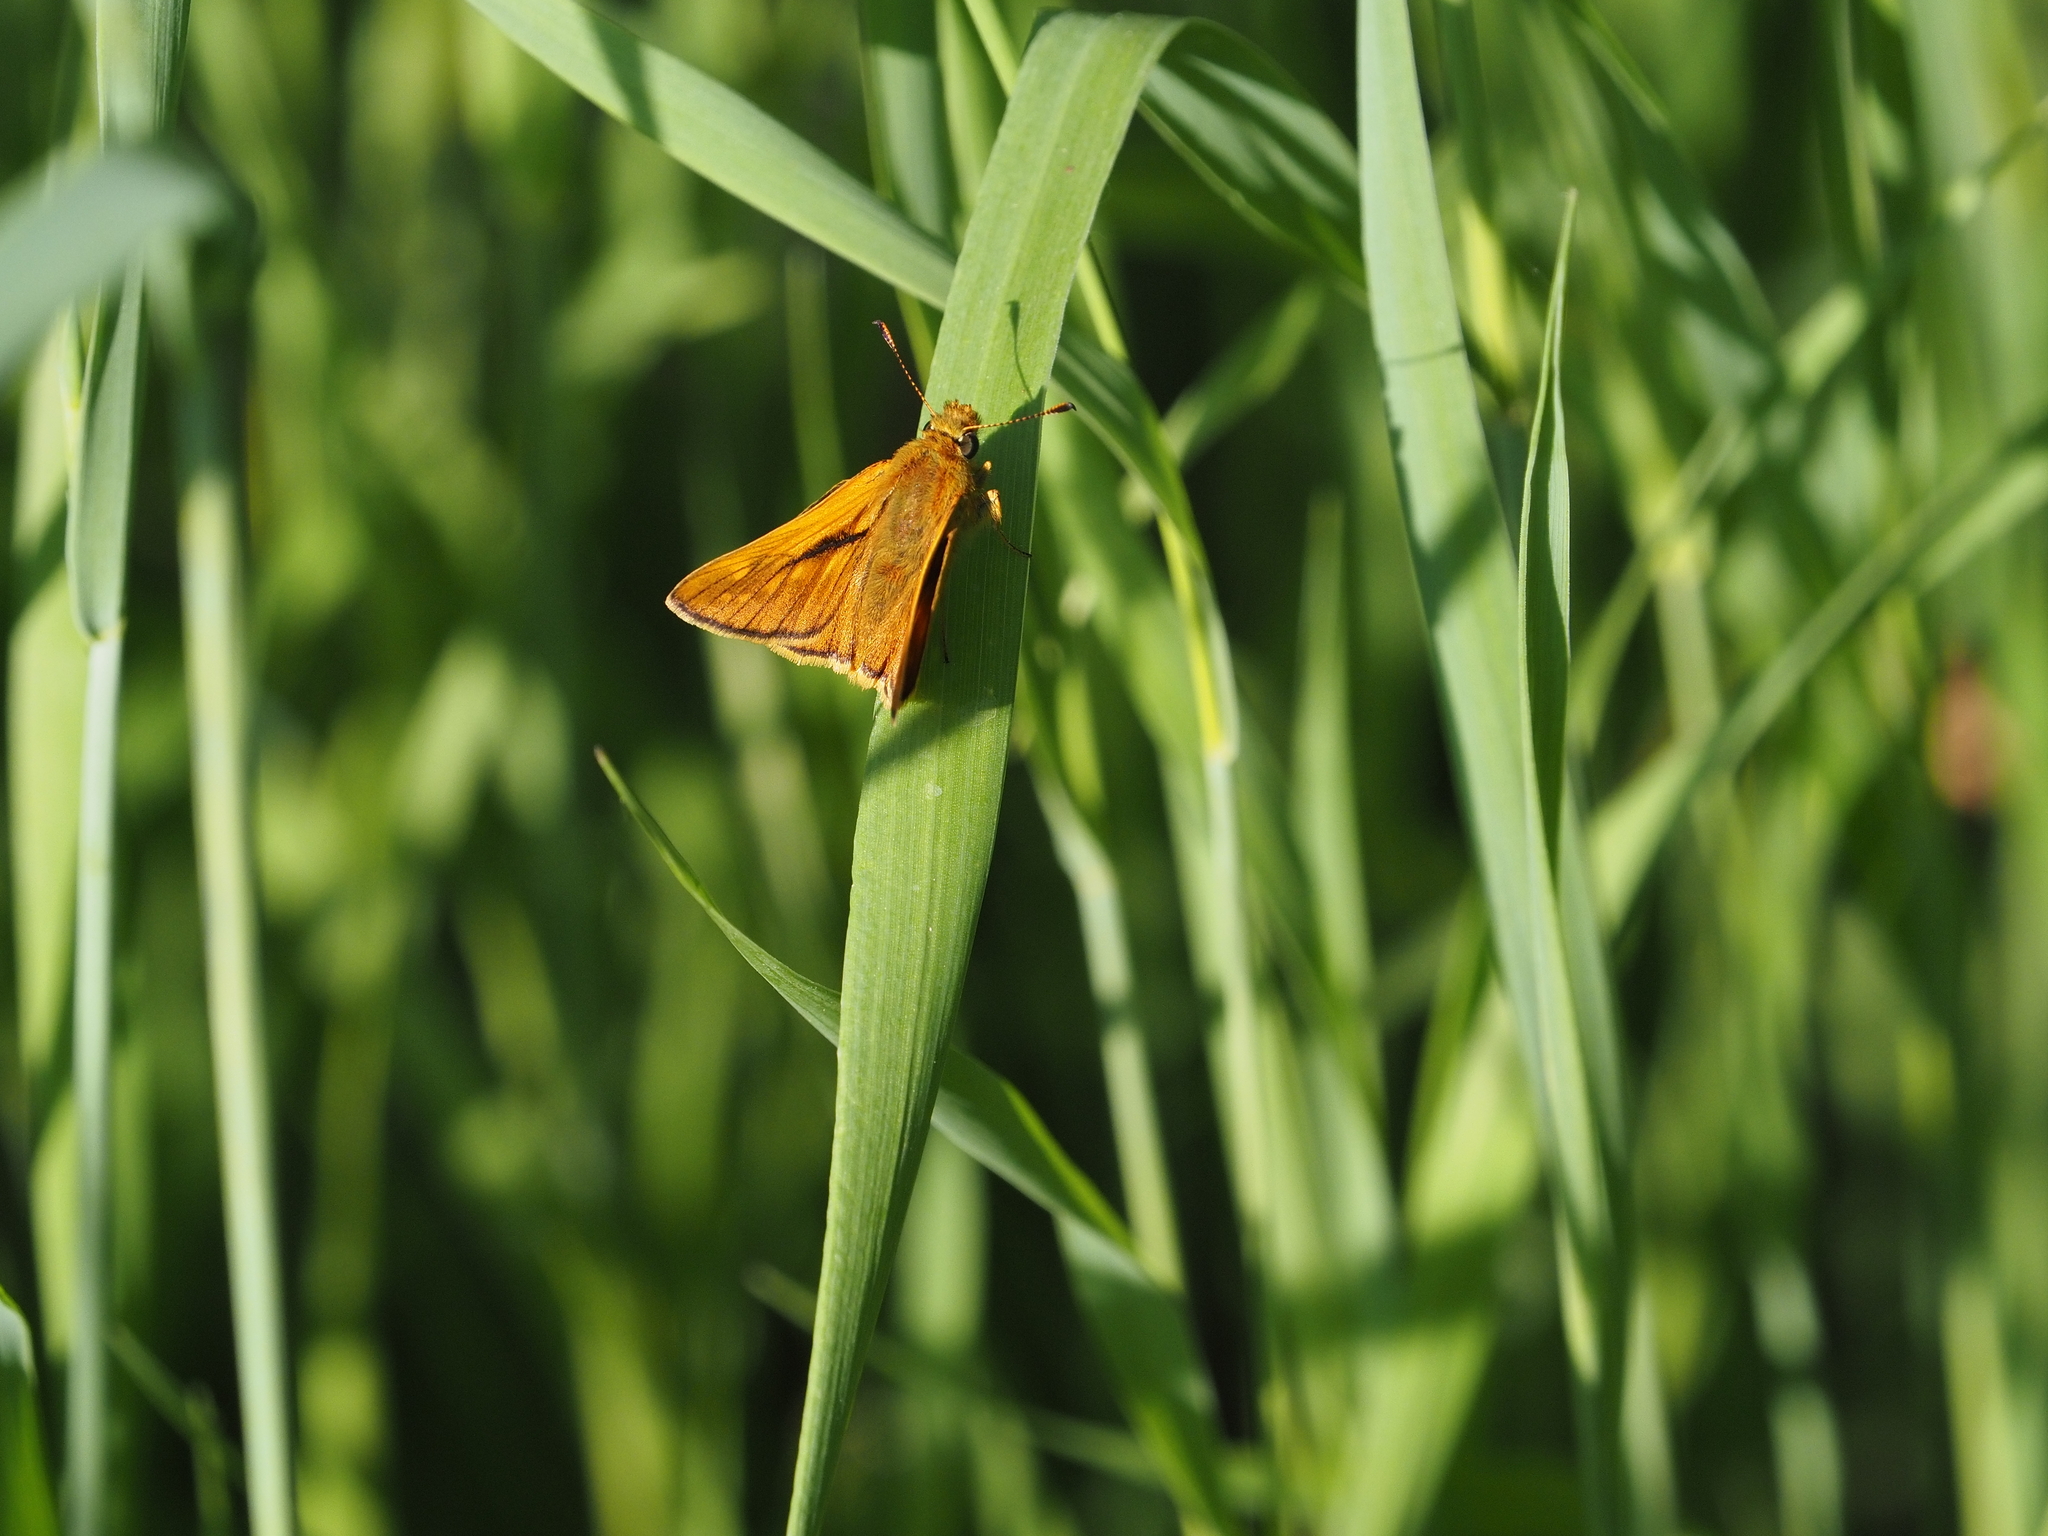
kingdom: Animalia
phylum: Arthropoda
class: Insecta
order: Lepidoptera
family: Hesperiidae
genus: Ochlodes
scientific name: Ochlodes venata
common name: Large skipper
